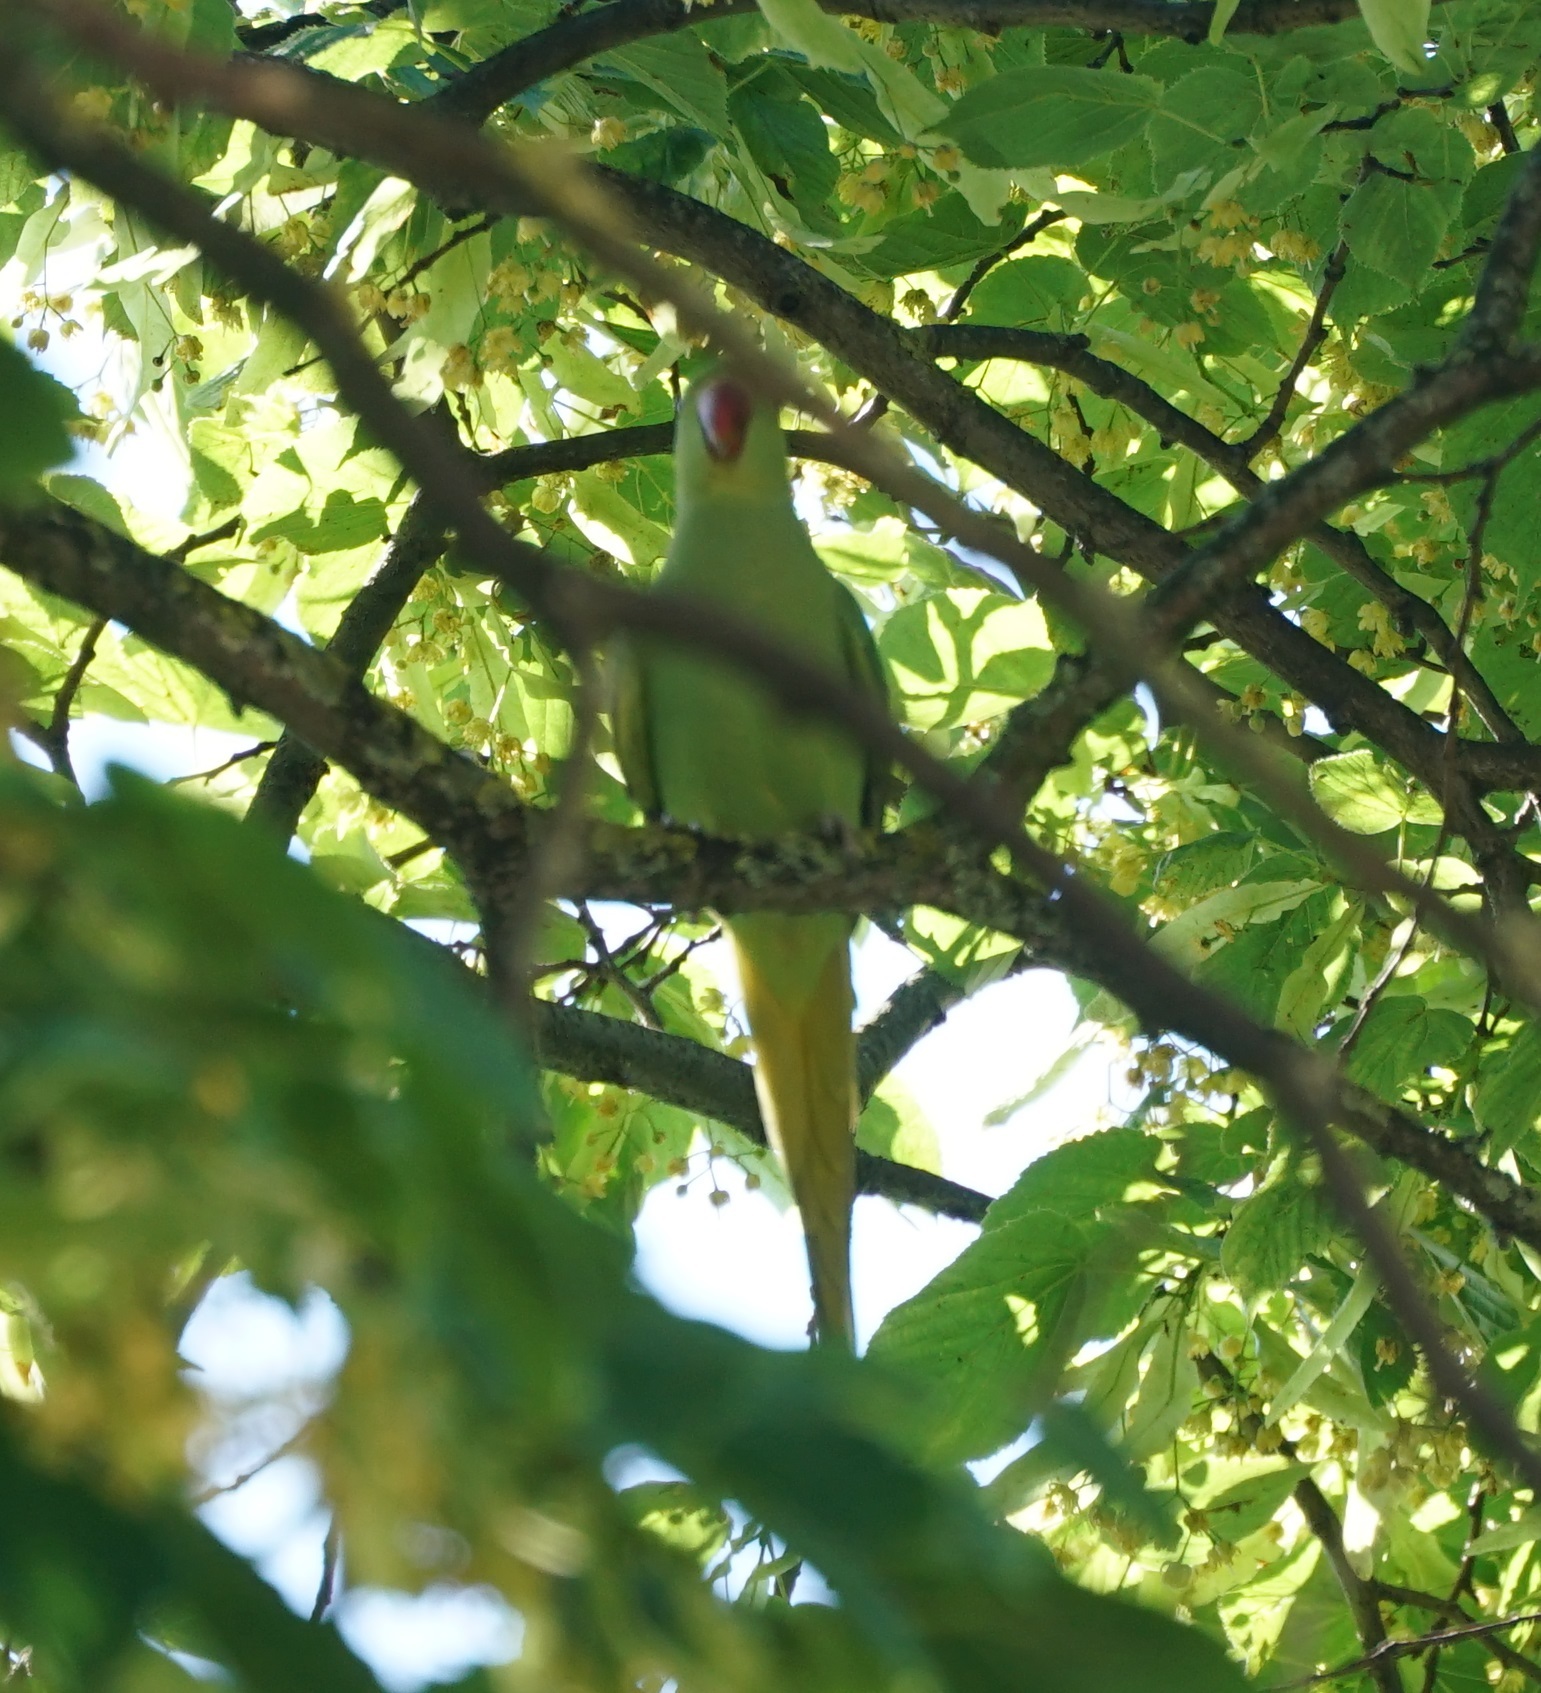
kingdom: Animalia
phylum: Chordata
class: Aves
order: Psittaciformes
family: Psittacidae
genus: Psittacula
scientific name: Psittacula krameri
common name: Rose-ringed parakeet
